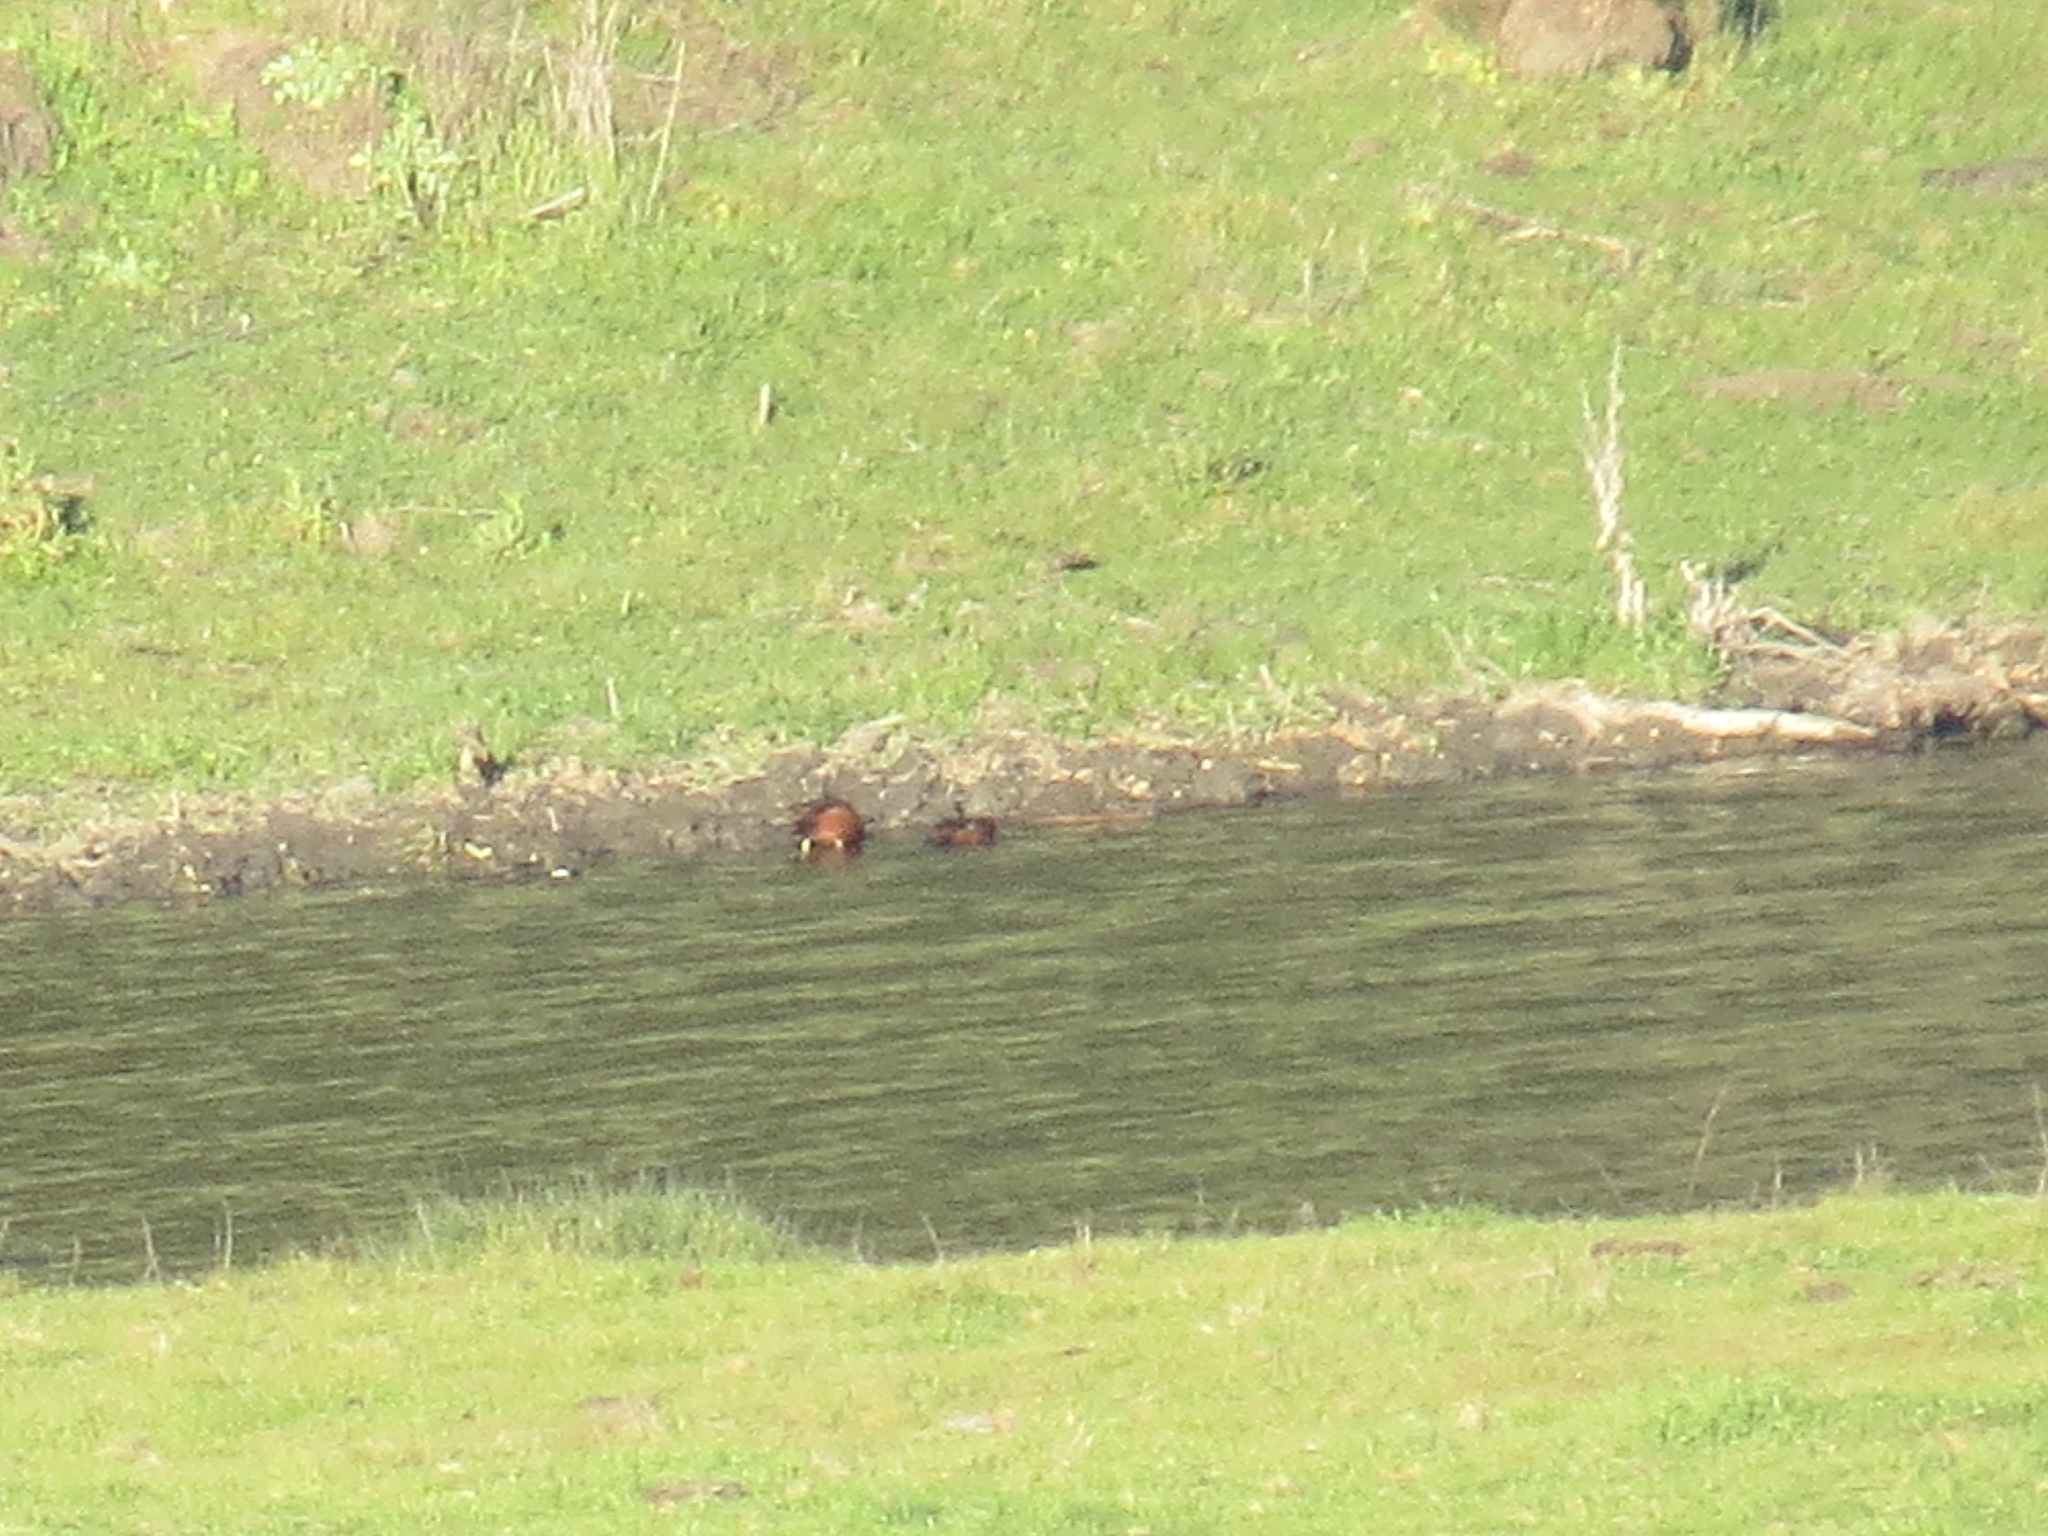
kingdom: Animalia
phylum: Chordata
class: Aves
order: Anseriformes
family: Anatidae
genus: Spatula
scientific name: Spatula cyanoptera
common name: Cinnamon teal
